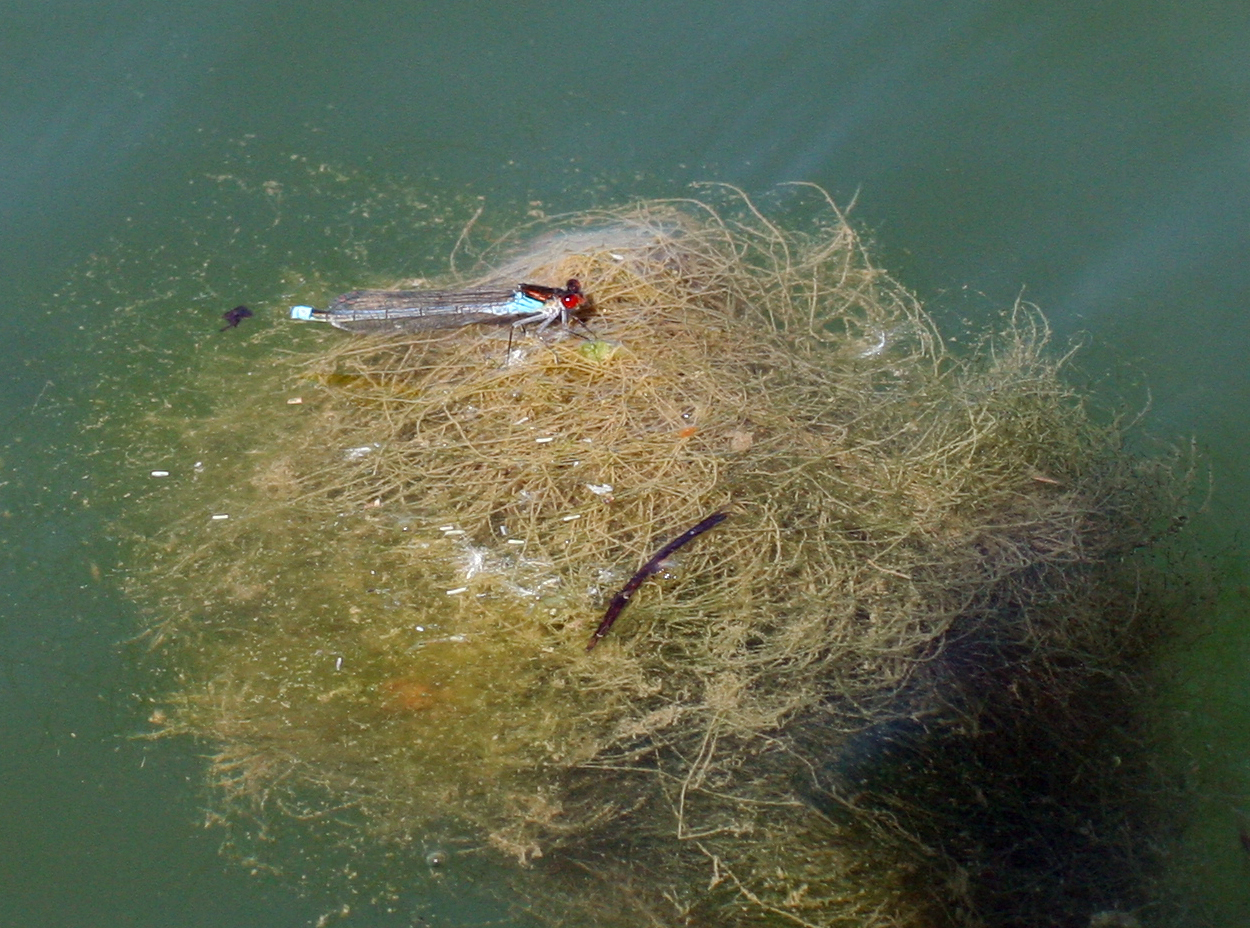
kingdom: Animalia
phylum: Arthropoda
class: Insecta
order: Odonata
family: Coenagrionidae
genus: Erythromma
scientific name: Erythromma najas
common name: Red-eyed damselfly
